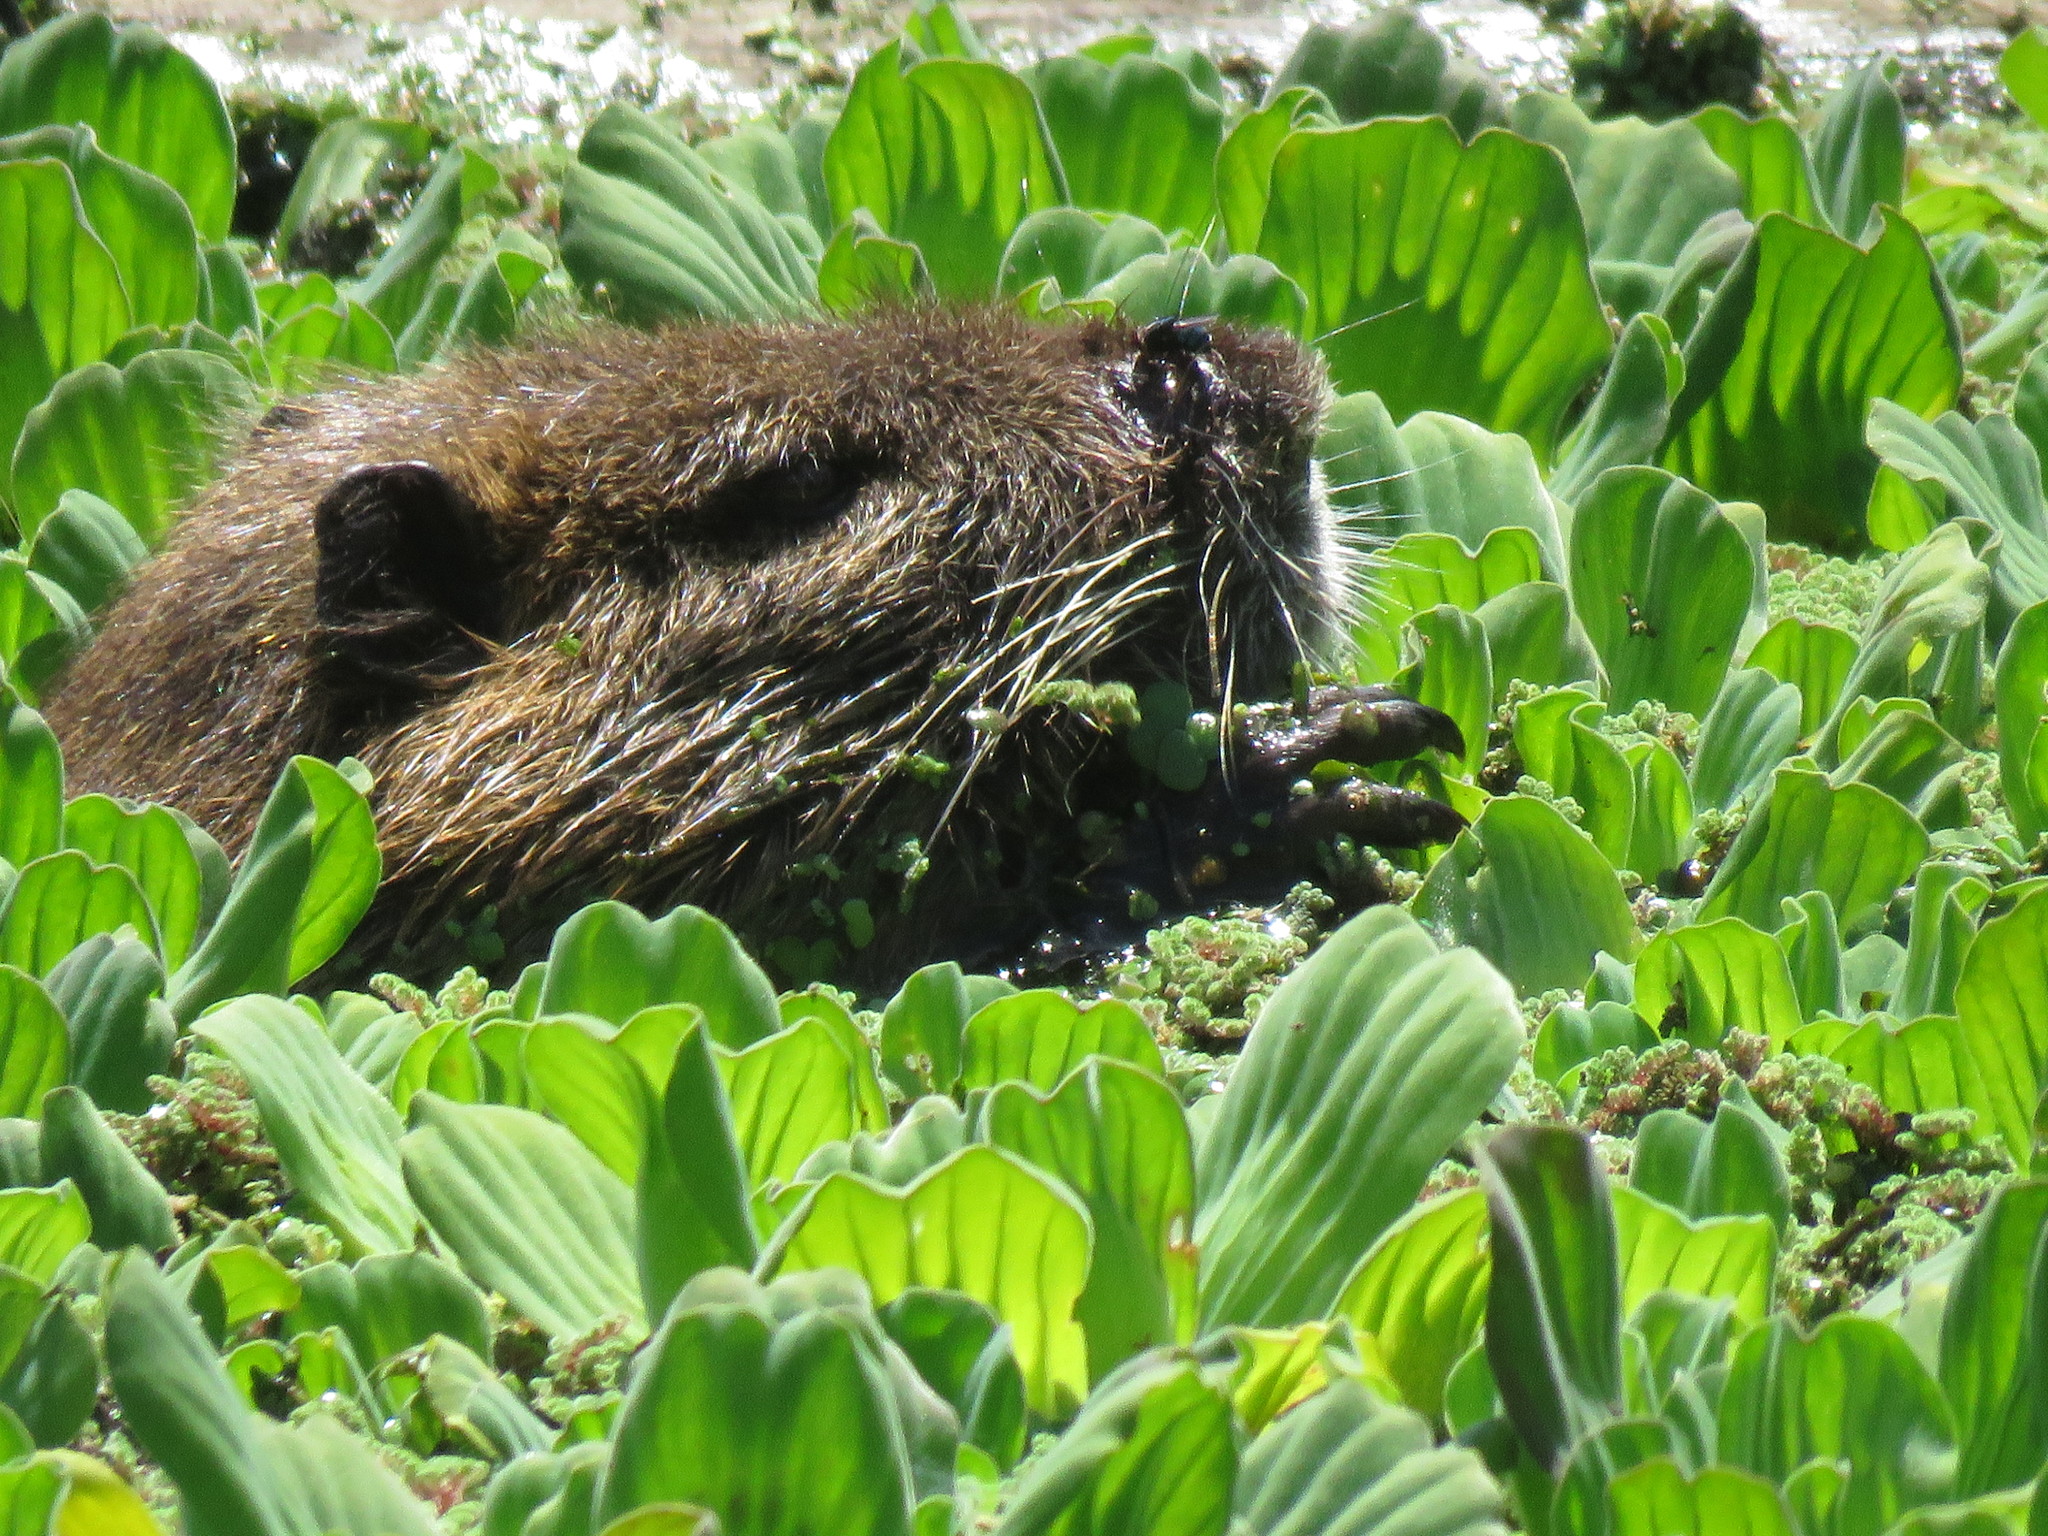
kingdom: Animalia
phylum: Chordata
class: Mammalia
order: Rodentia
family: Myocastoridae
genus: Myocastor
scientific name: Myocastor coypus
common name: Coypu
